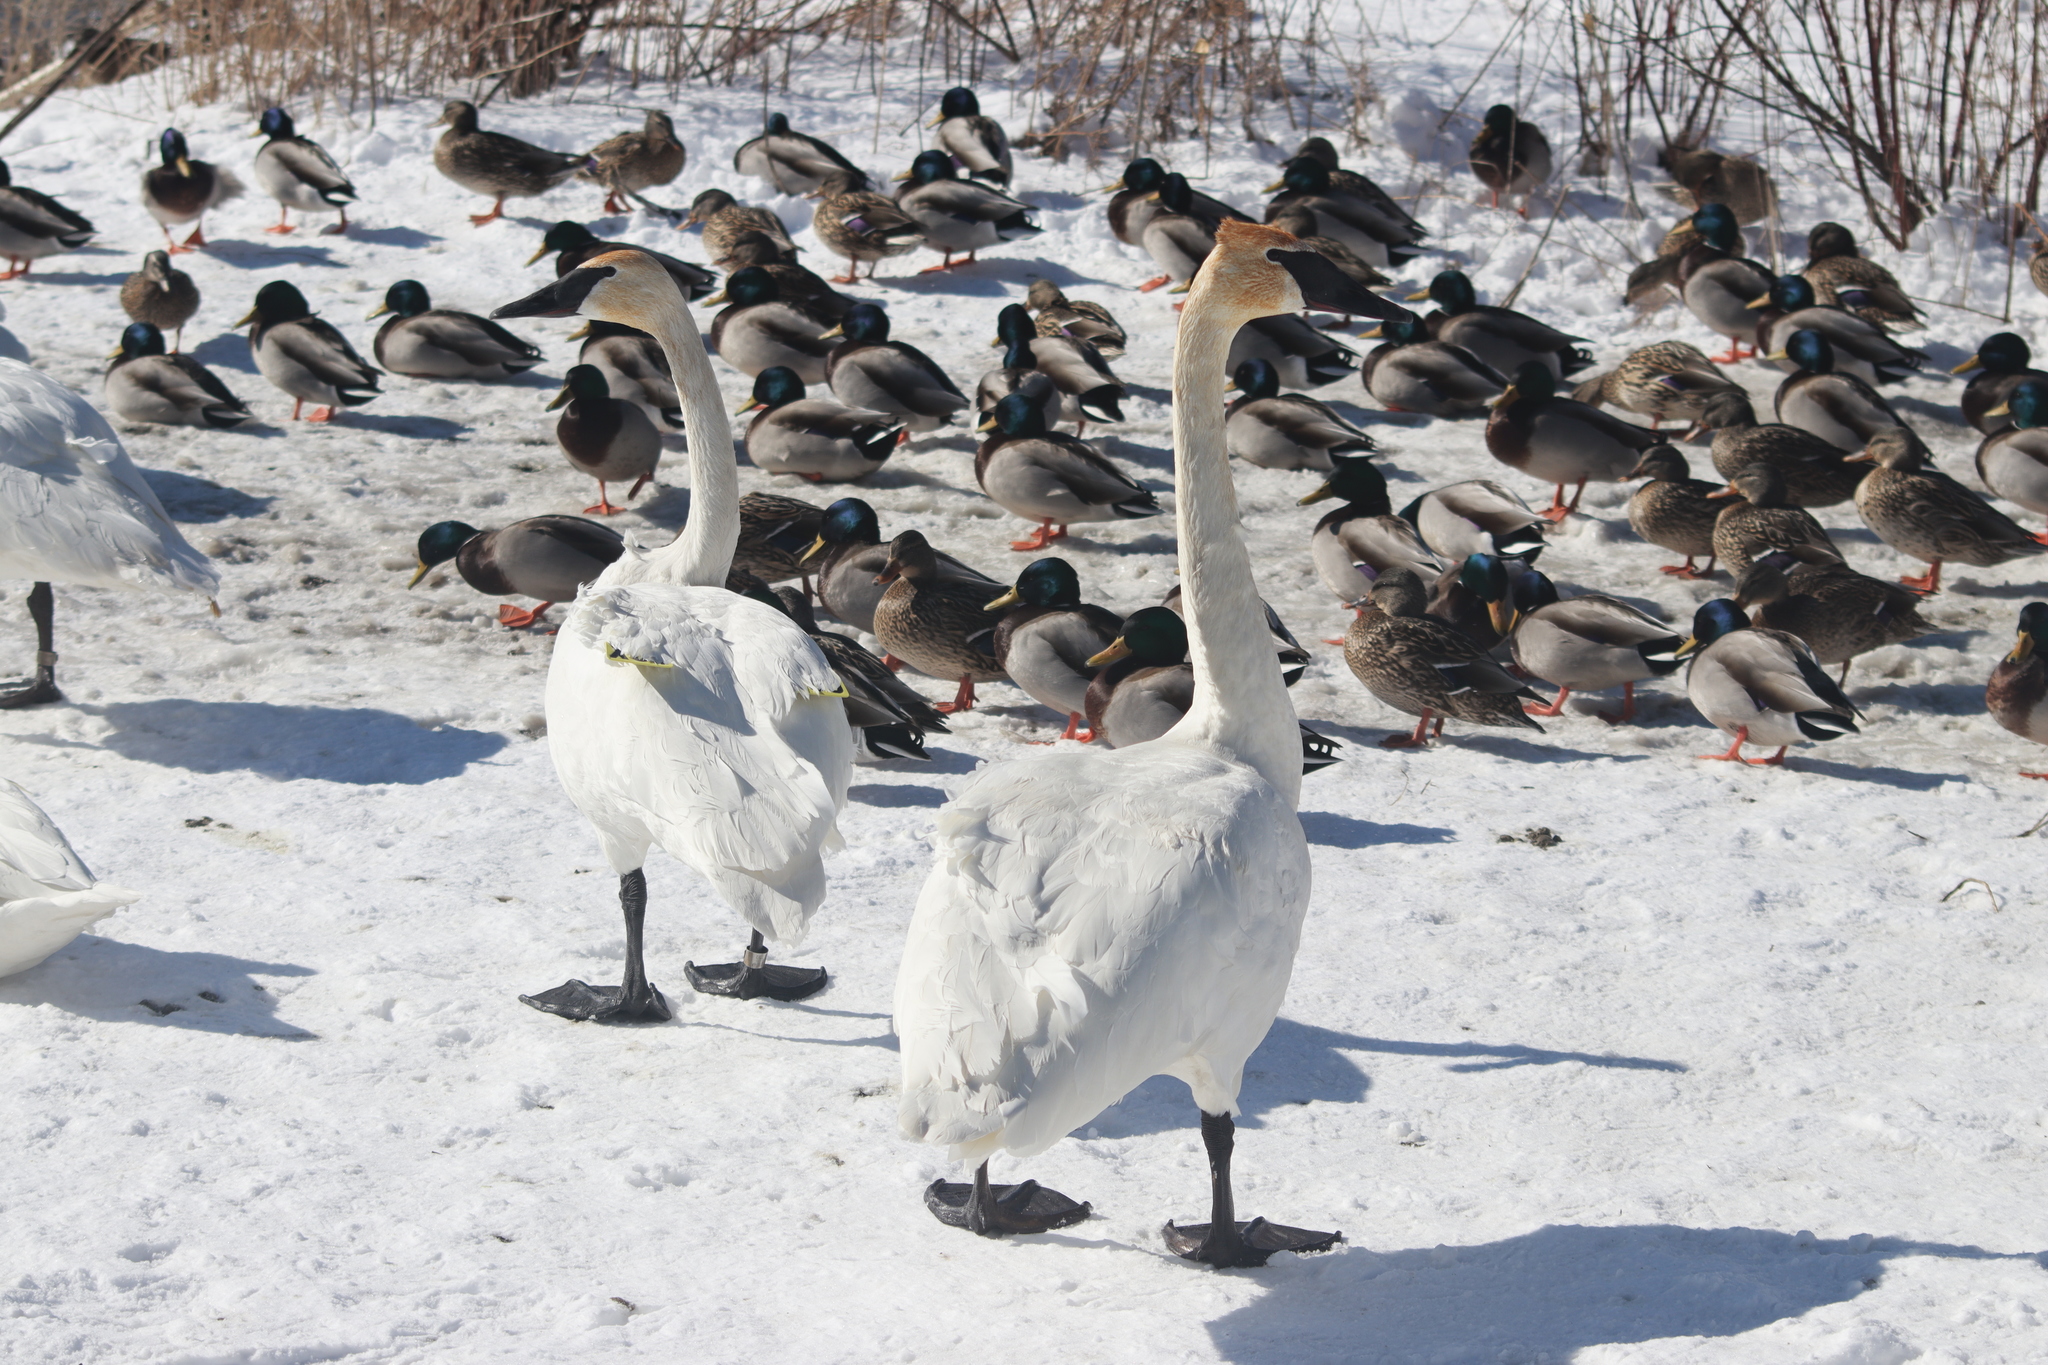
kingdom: Animalia
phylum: Chordata
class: Aves
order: Anseriformes
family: Anatidae
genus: Cygnus
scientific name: Cygnus buccinator
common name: Trumpeter swan
